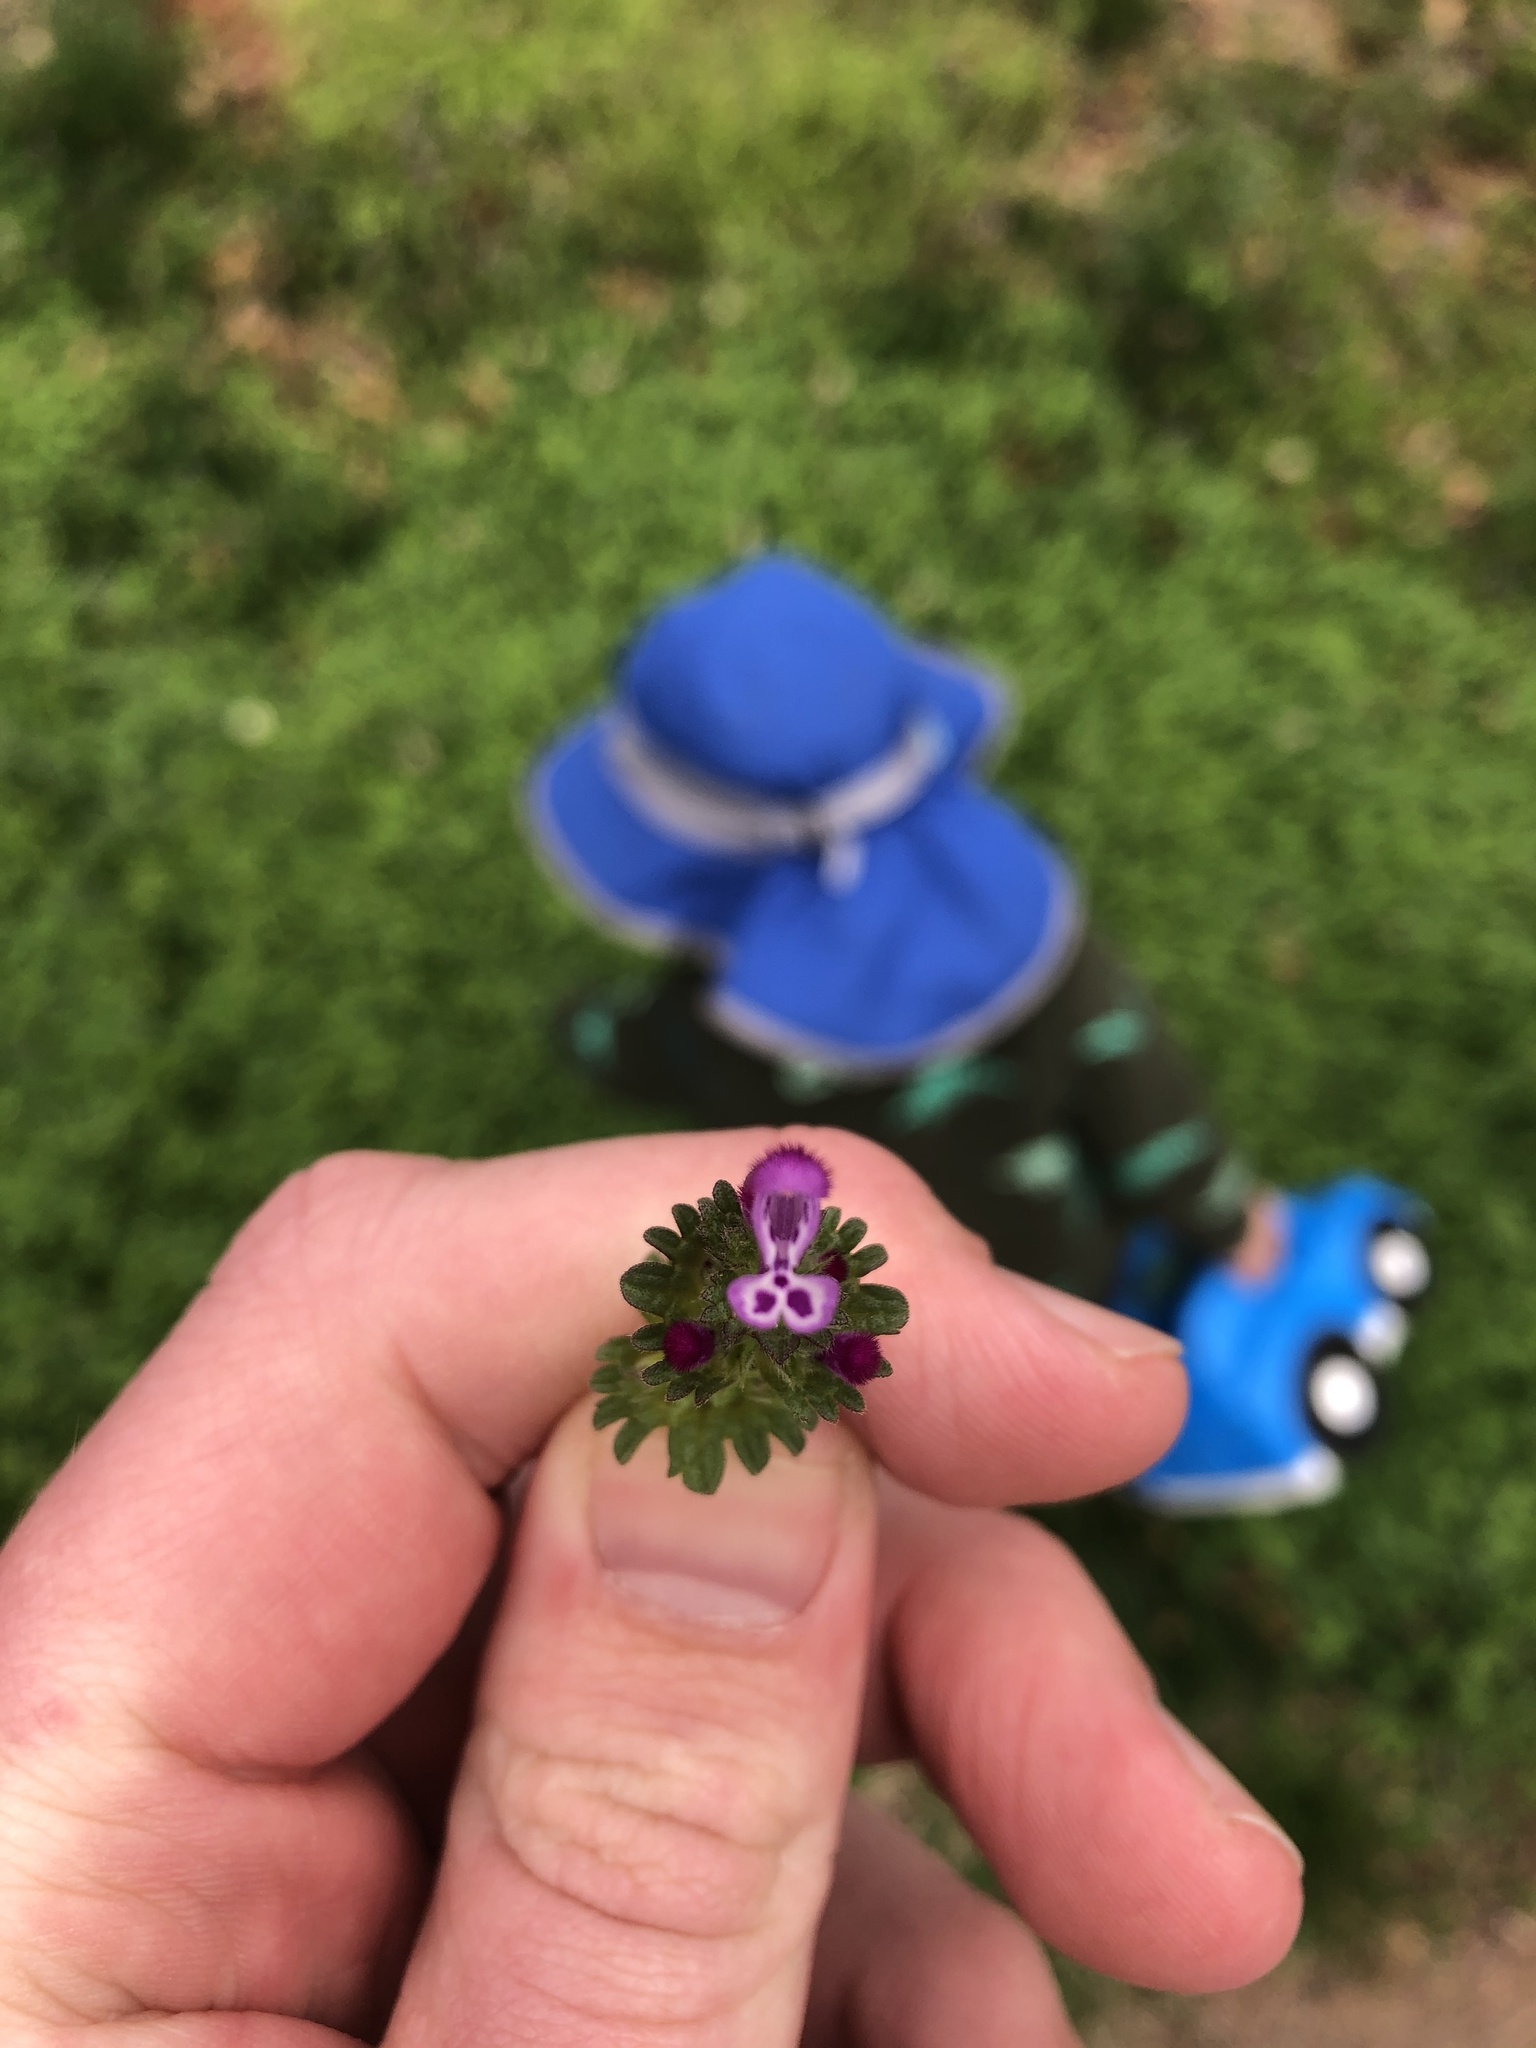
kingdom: Plantae
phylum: Tracheophyta
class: Magnoliopsida
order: Lamiales
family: Lamiaceae
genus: Lamium
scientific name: Lamium amplexicaule
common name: Henbit dead-nettle
